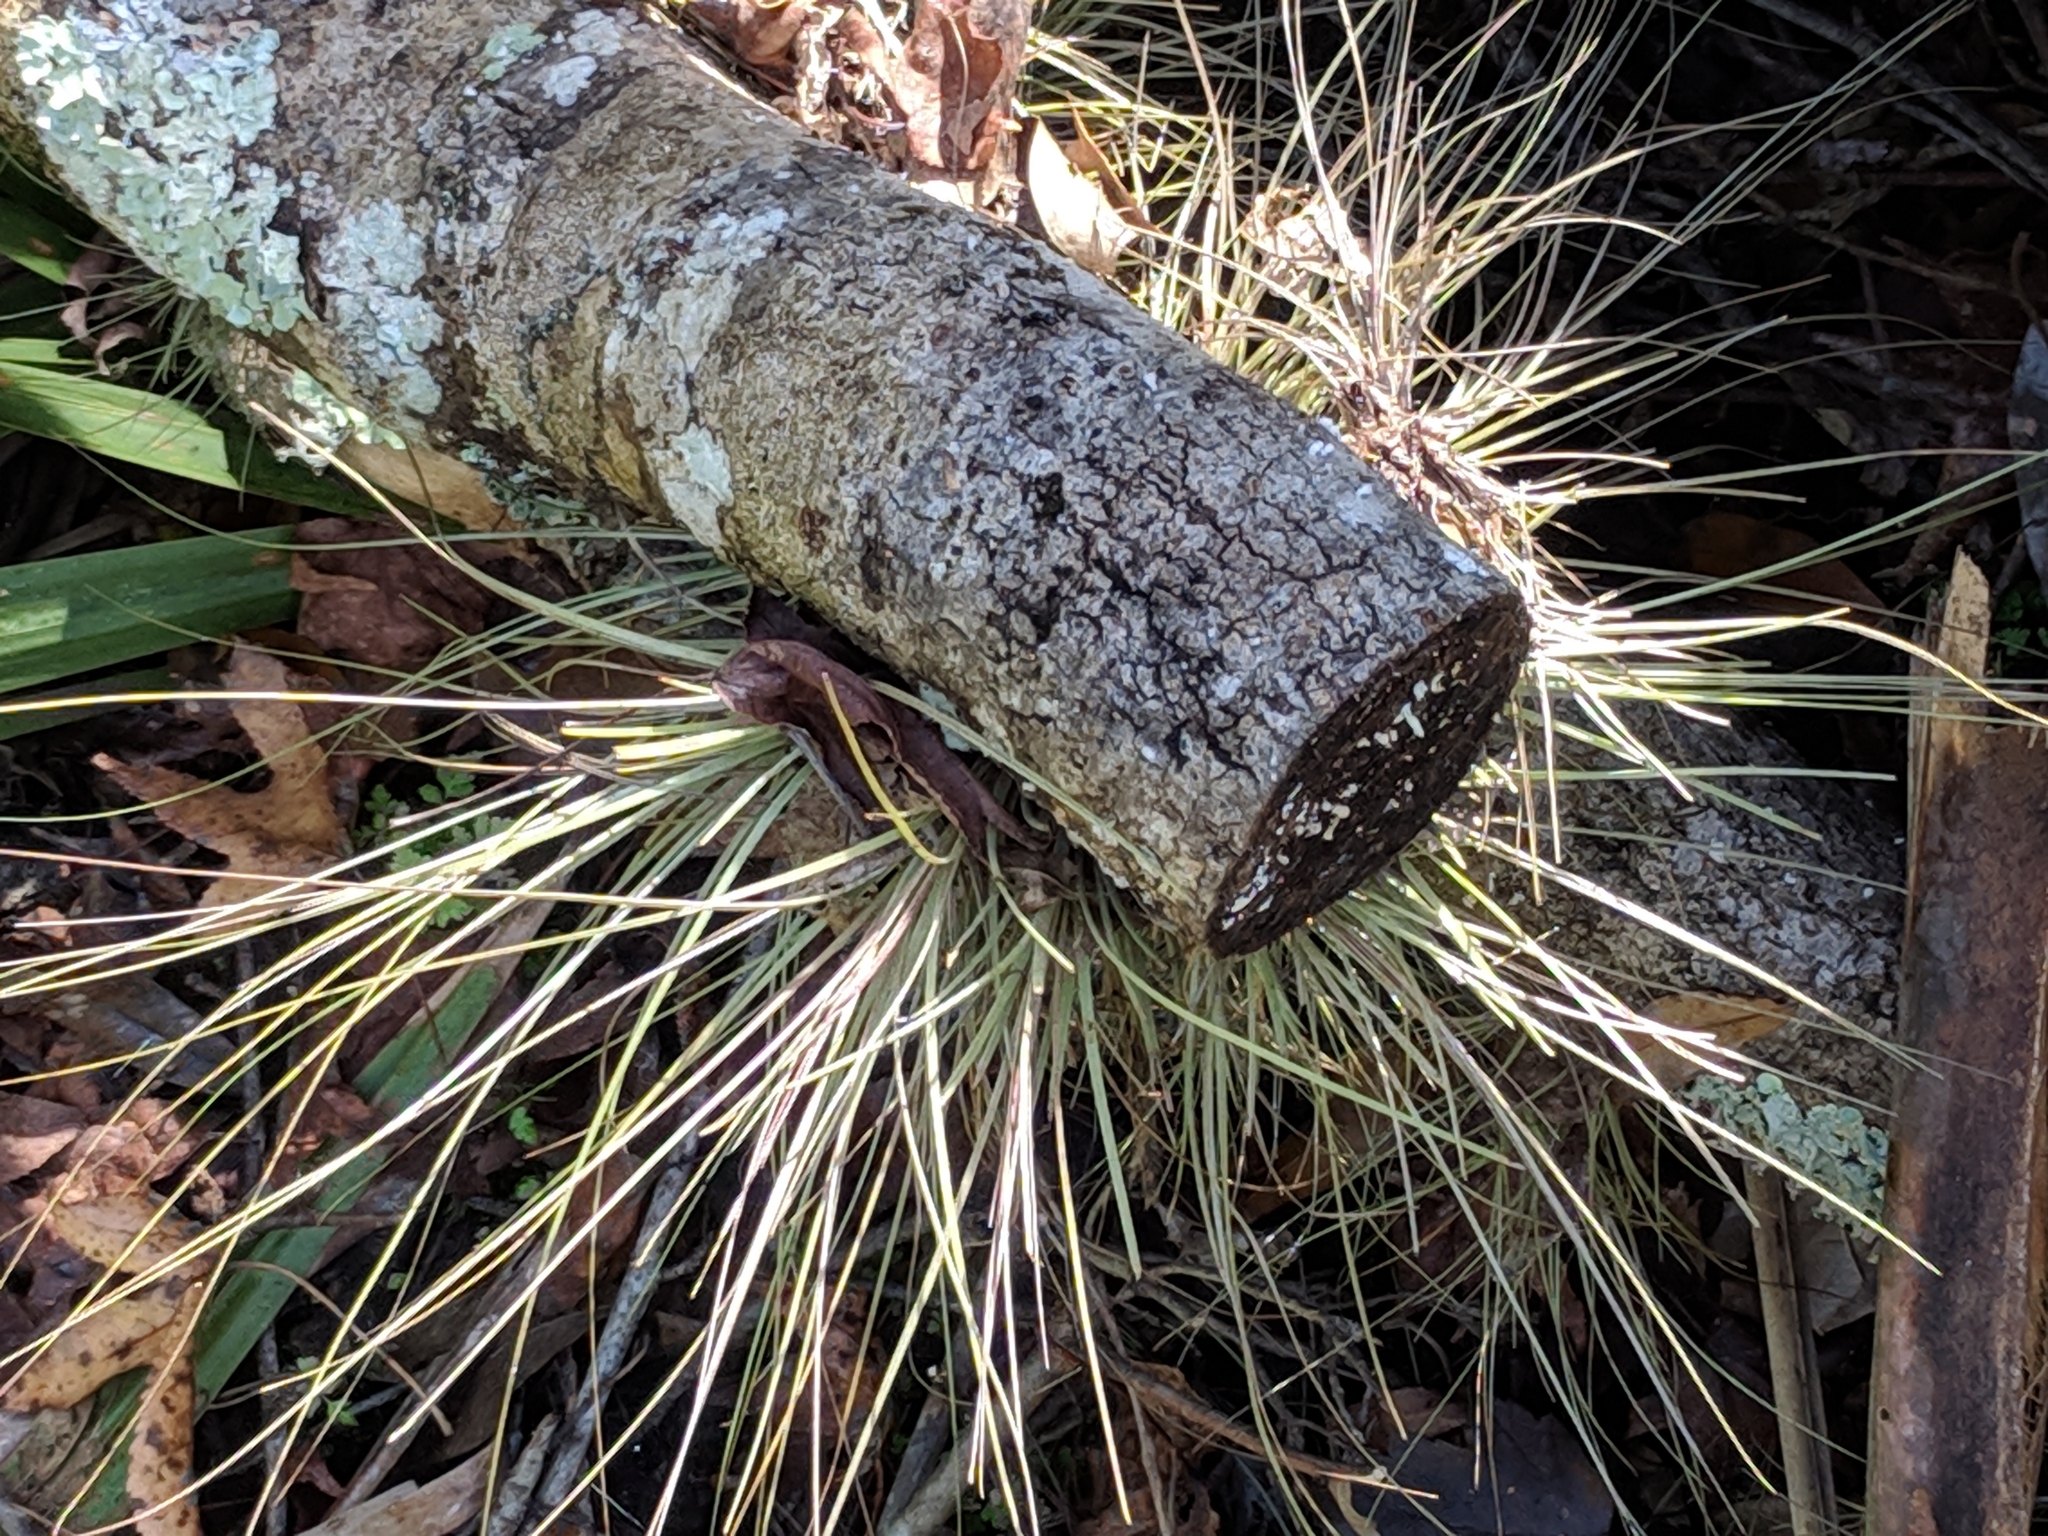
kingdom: Plantae
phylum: Tracheophyta
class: Liliopsida
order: Poales
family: Bromeliaceae
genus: Tillandsia
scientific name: Tillandsia bartramii
